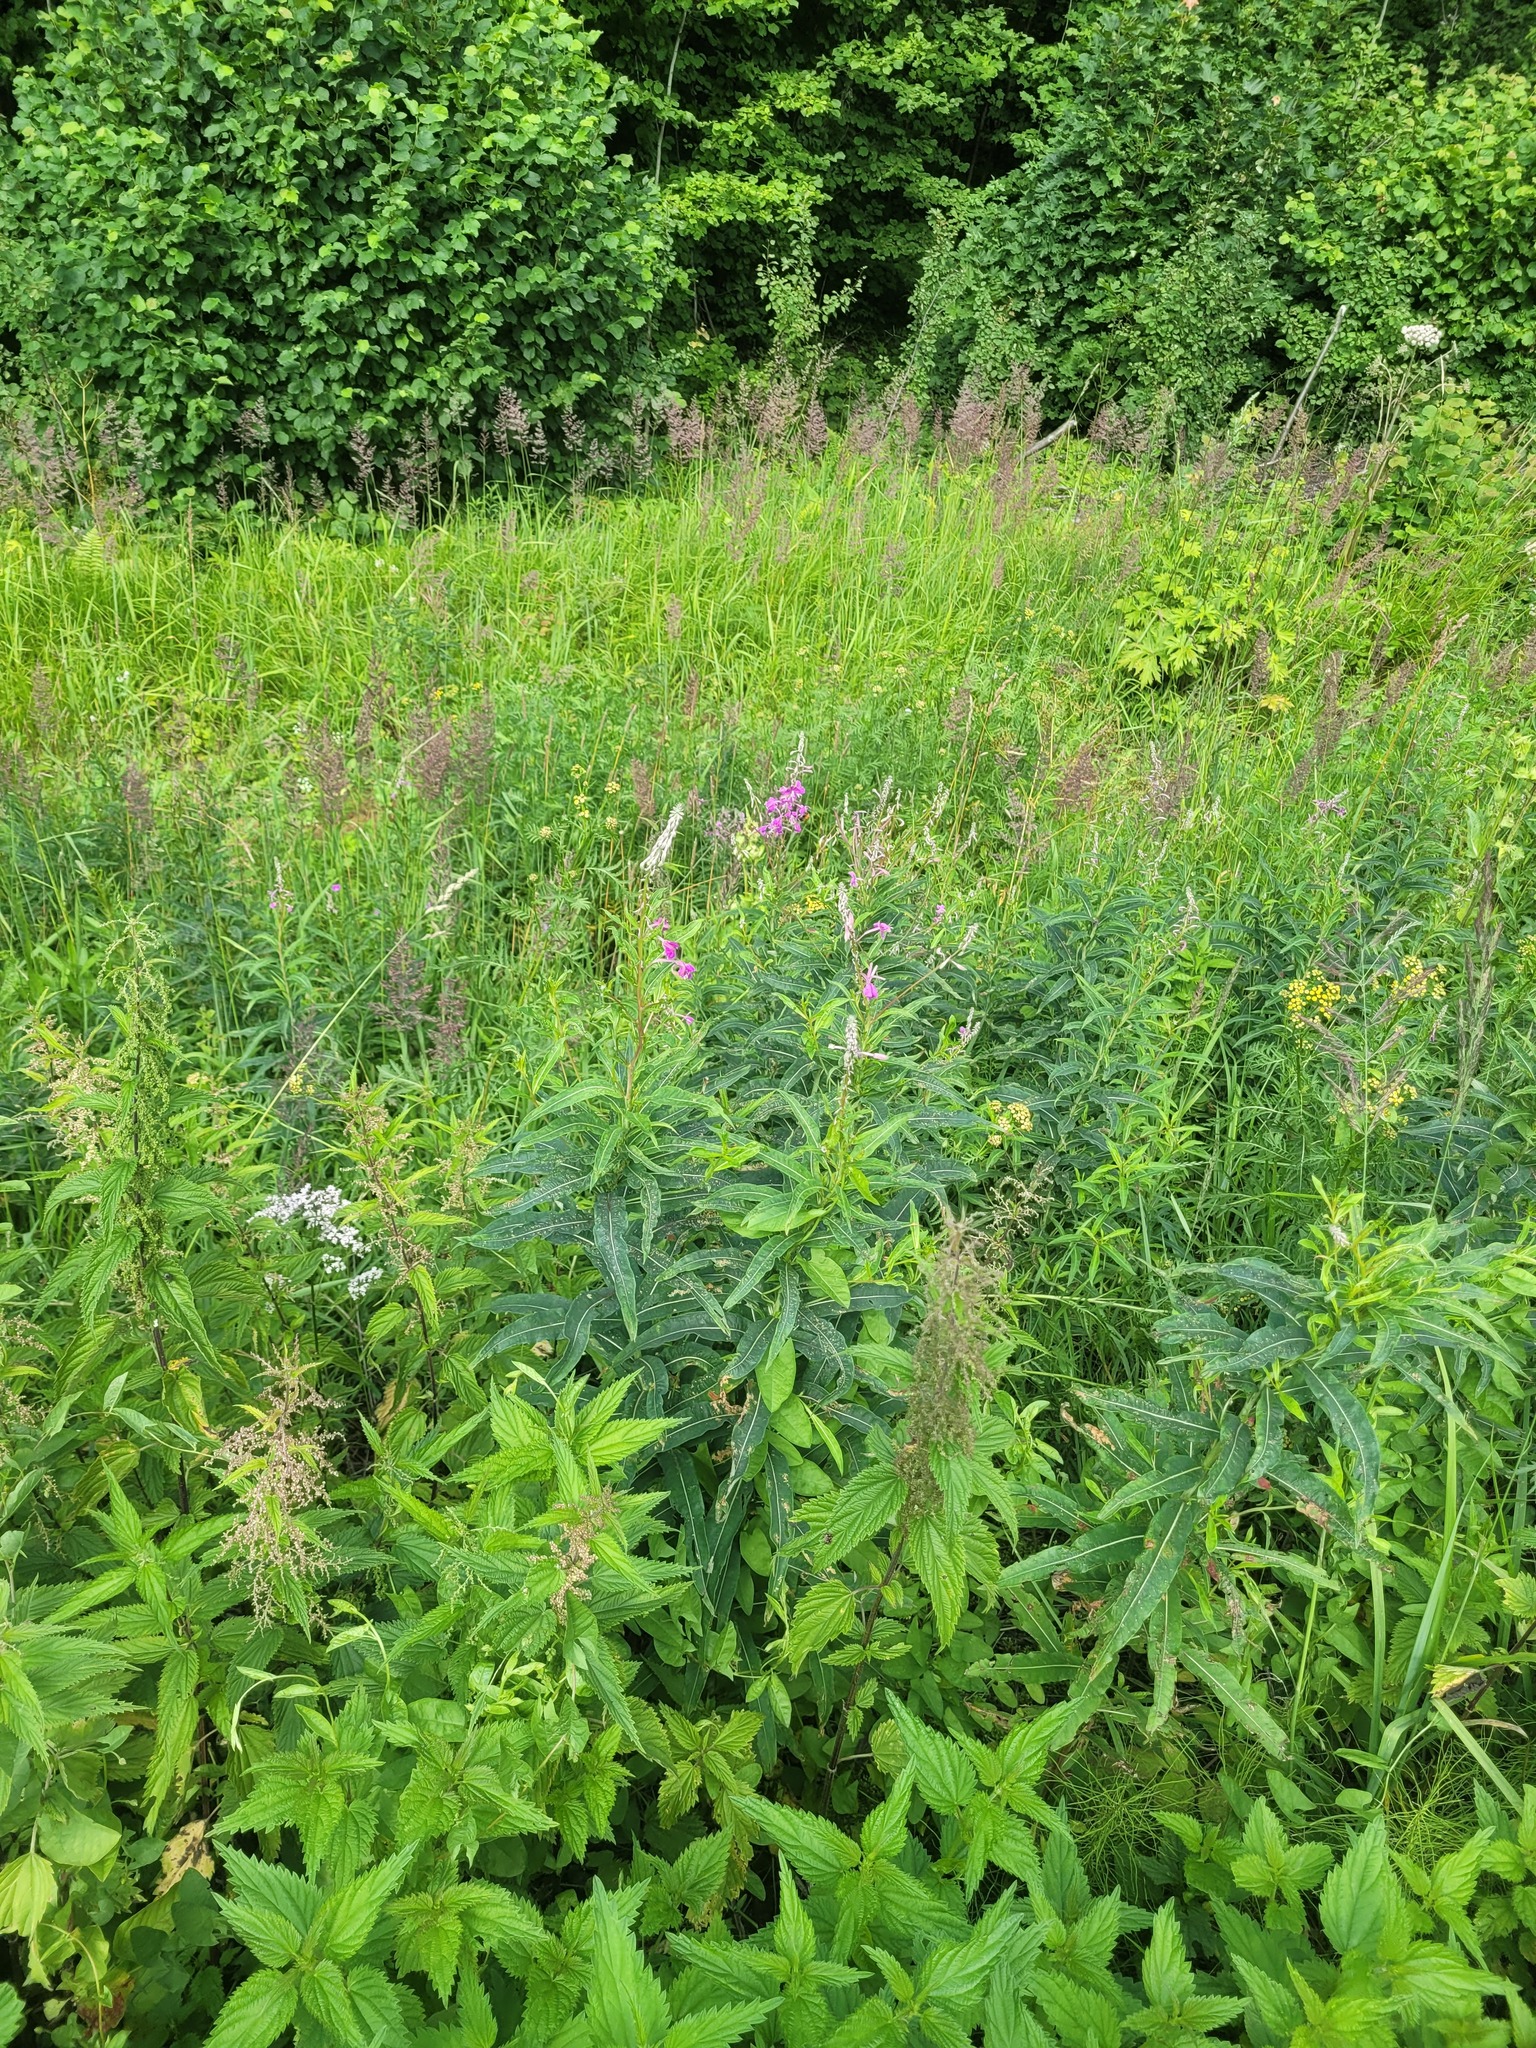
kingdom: Plantae
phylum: Tracheophyta
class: Magnoliopsida
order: Myrtales
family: Onagraceae
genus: Chamaenerion
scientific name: Chamaenerion angustifolium
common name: Fireweed
